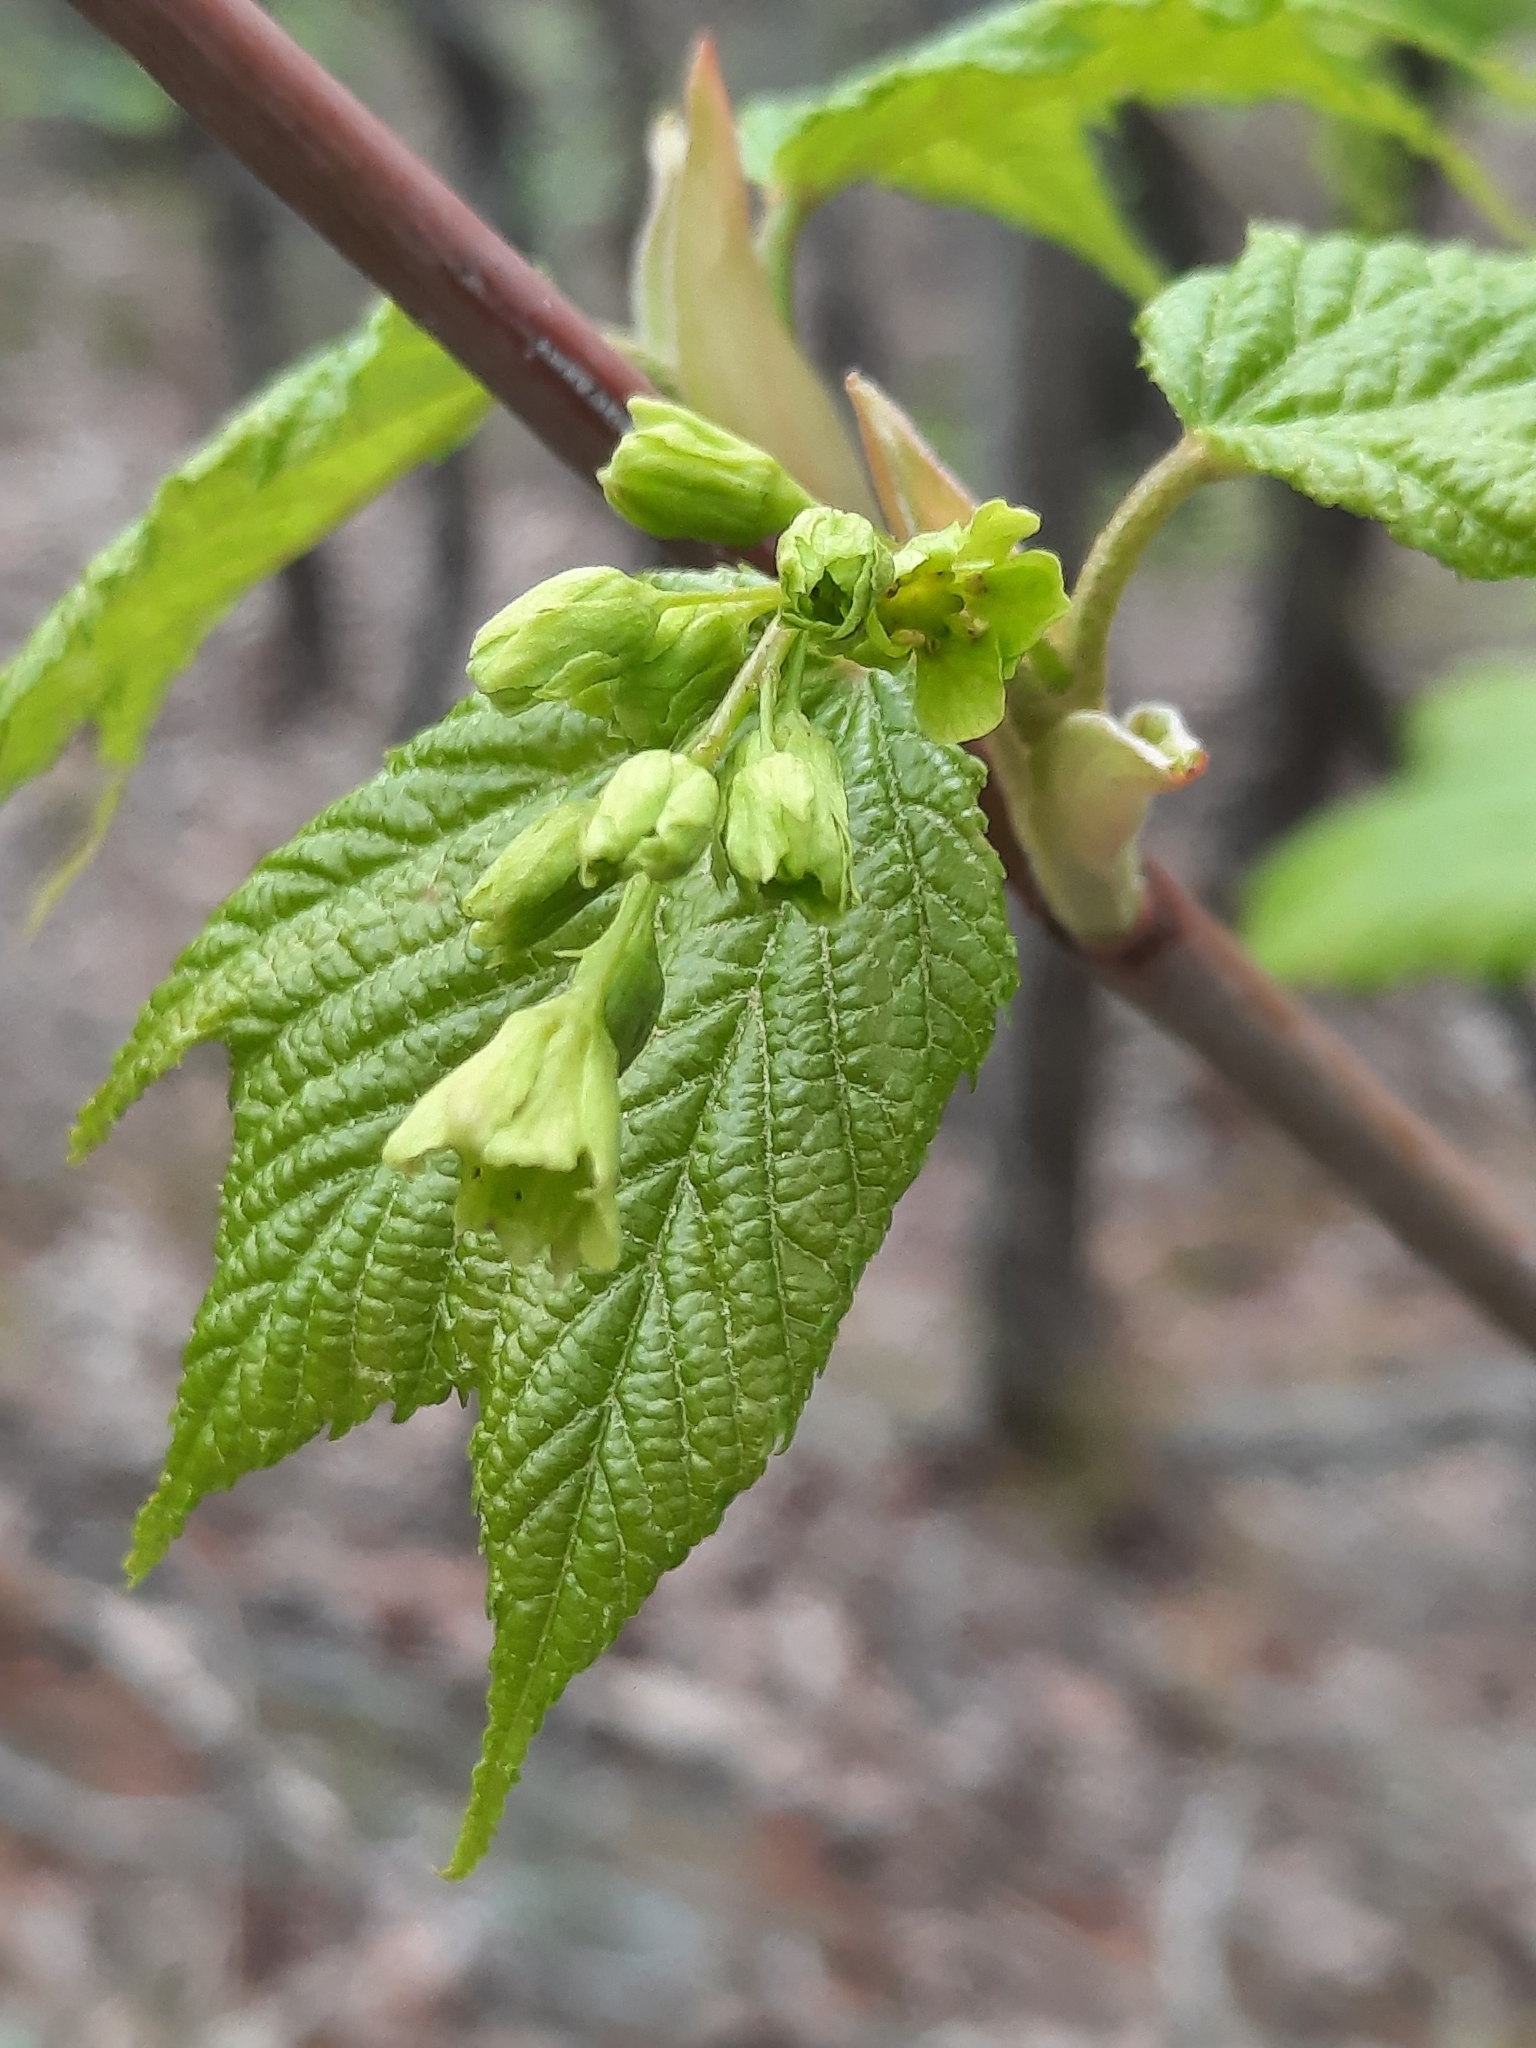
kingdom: Plantae
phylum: Tracheophyta
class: Magnoliopsida
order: Sapindales
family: Sapindaceae
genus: Acer
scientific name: Acer pensylvanicum
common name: Moosewood
